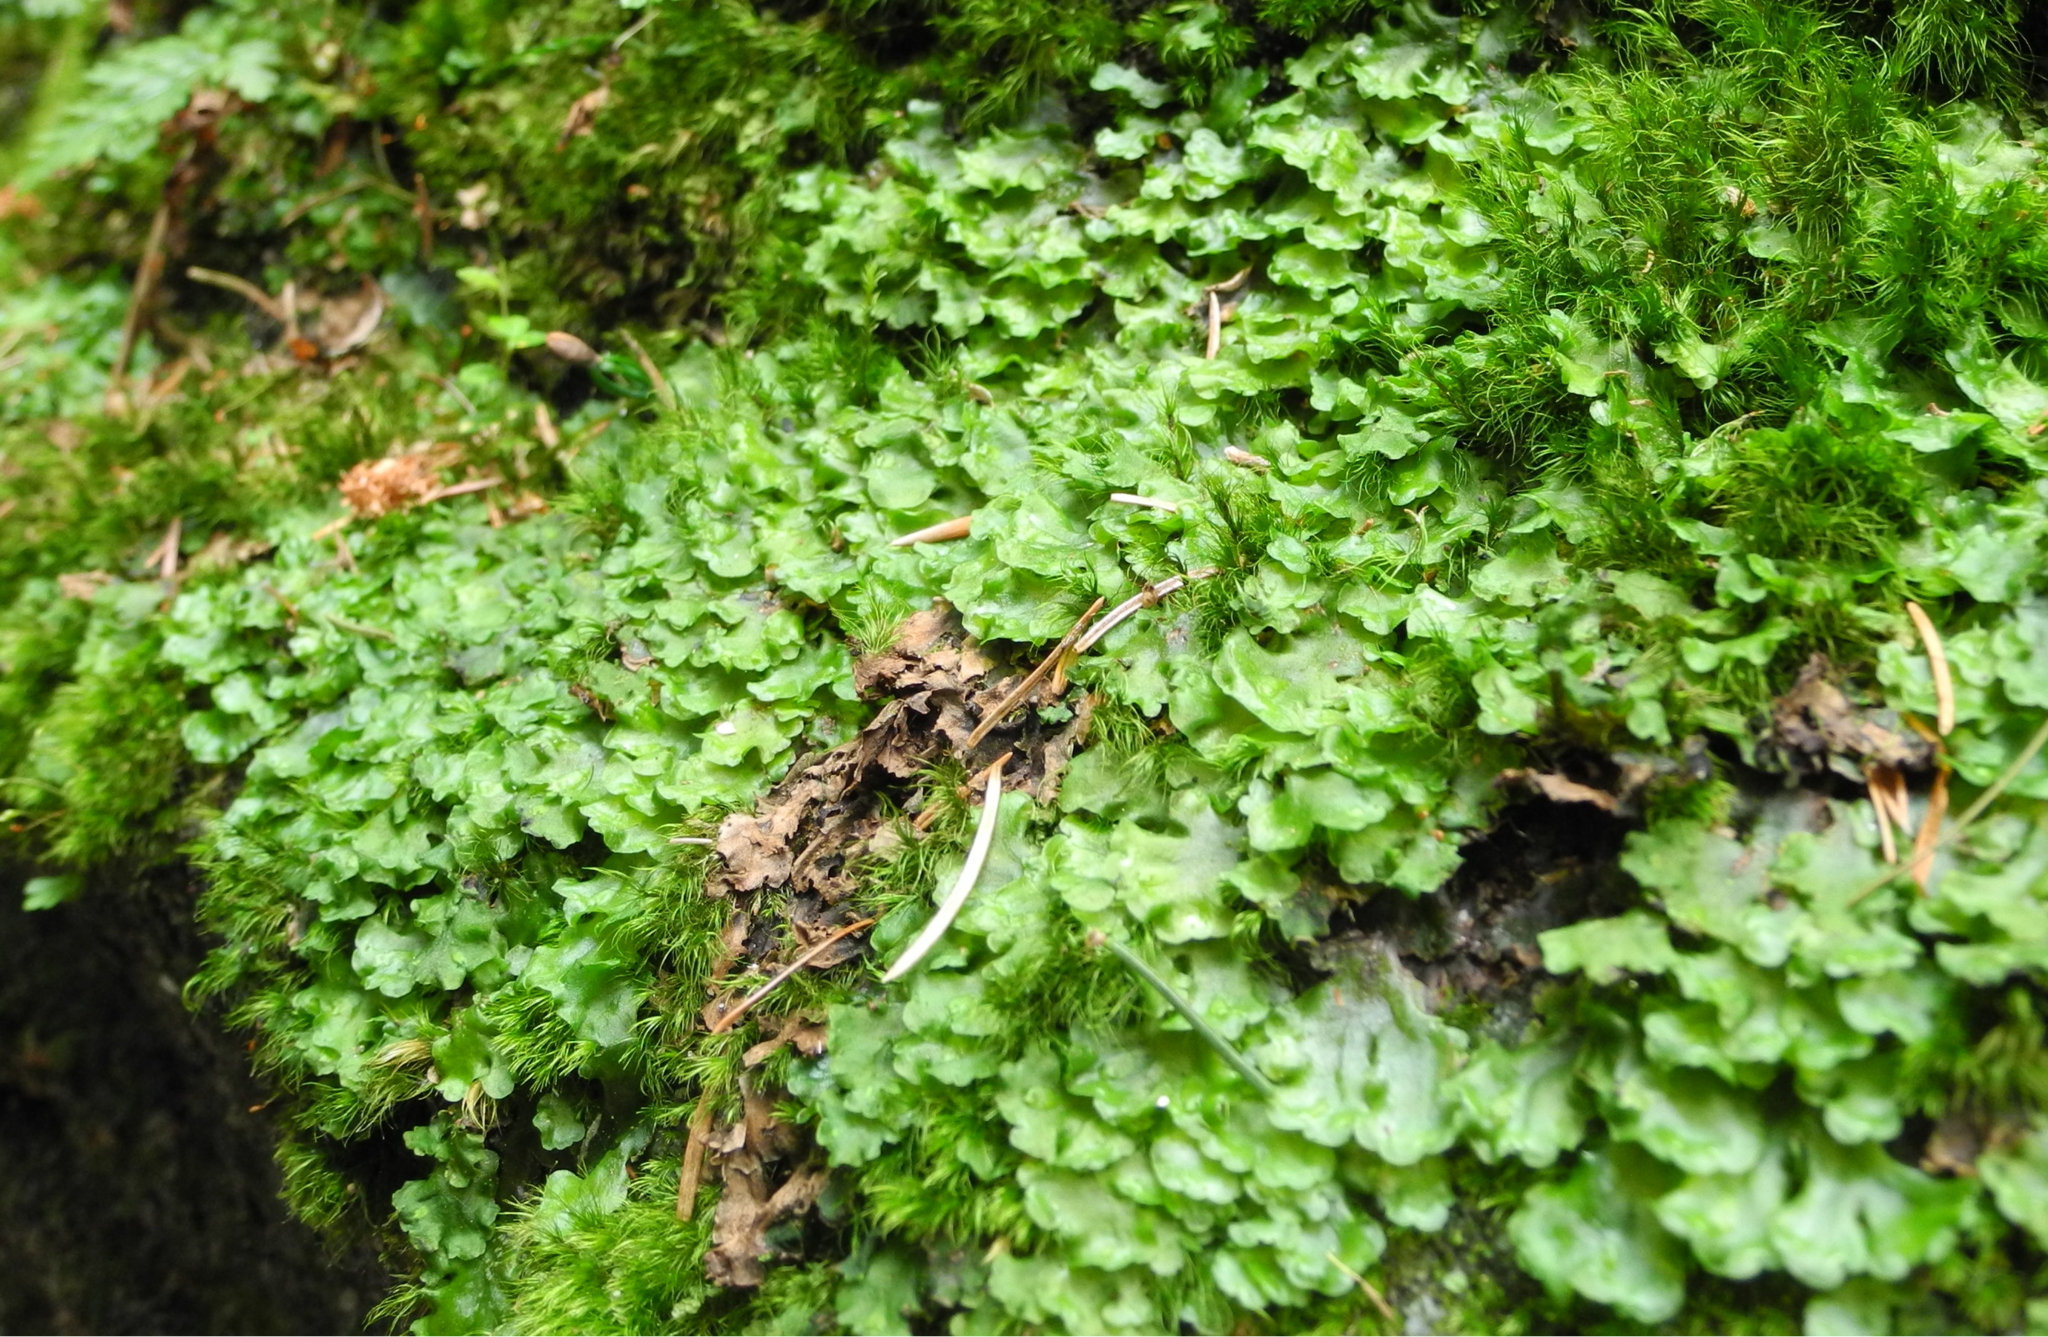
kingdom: Plantae
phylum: Marchantiophyta
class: Jungermanniopsida
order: Pelliales
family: Pelliaceae
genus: Pellia
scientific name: Pellia epiphylla
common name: Common pellia
